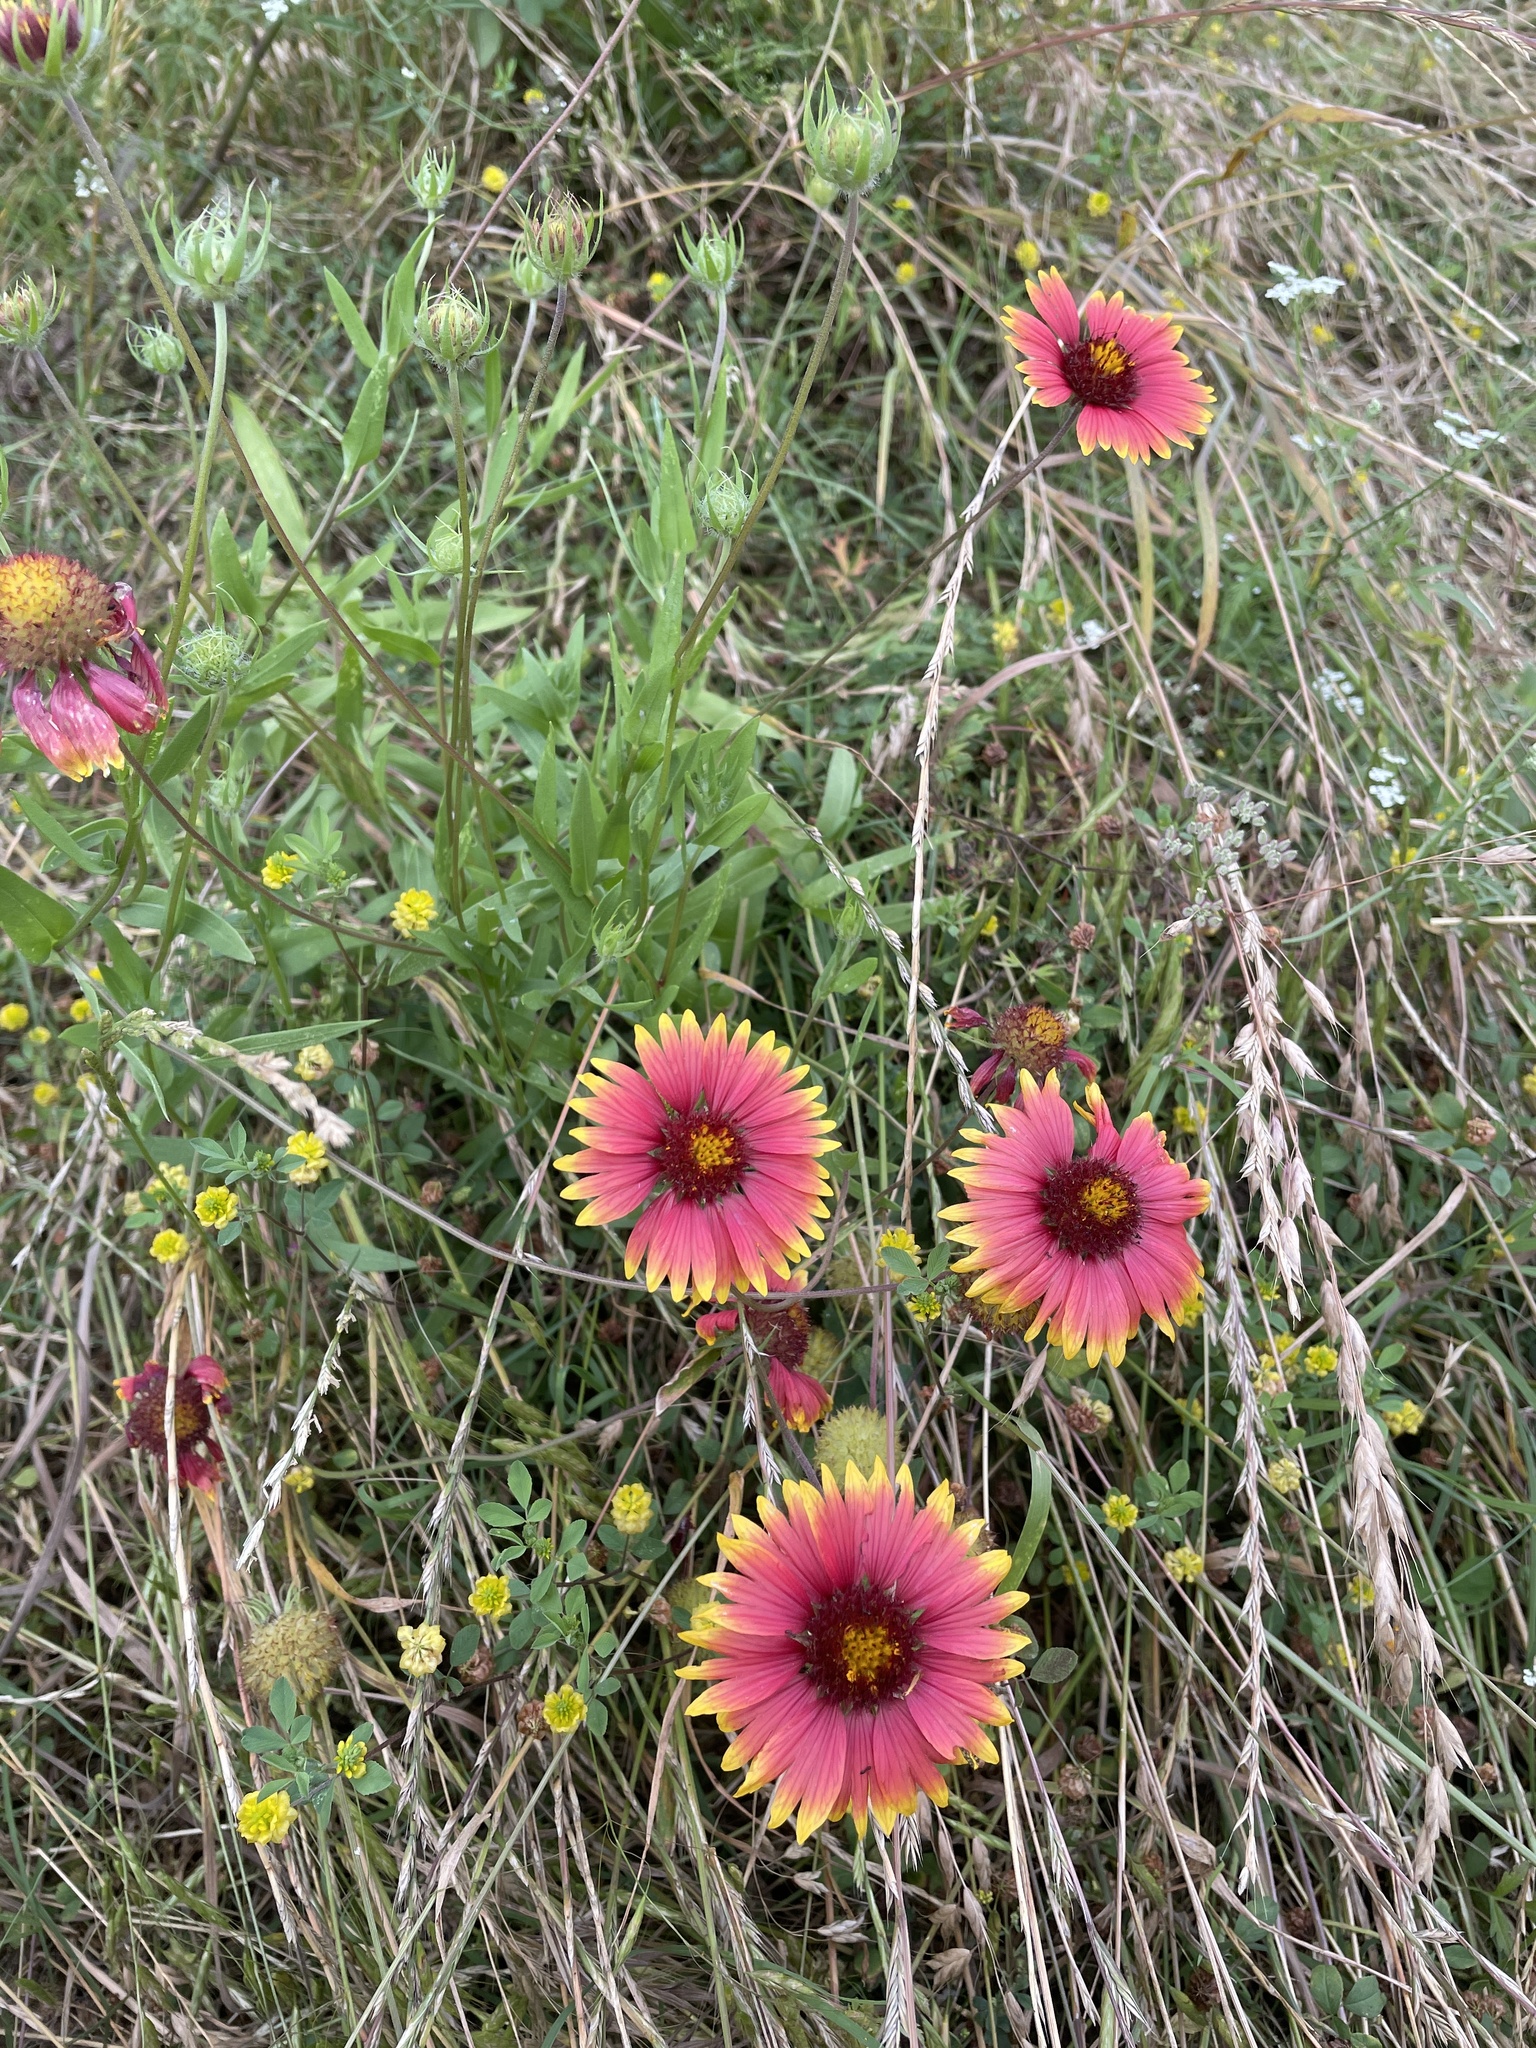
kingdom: Plantae
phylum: Tracheophyta
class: Magnoliopsida
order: Asterales
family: Asteraceae
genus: Gaillardia
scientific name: Gaillardia pulchella
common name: Firewheel
